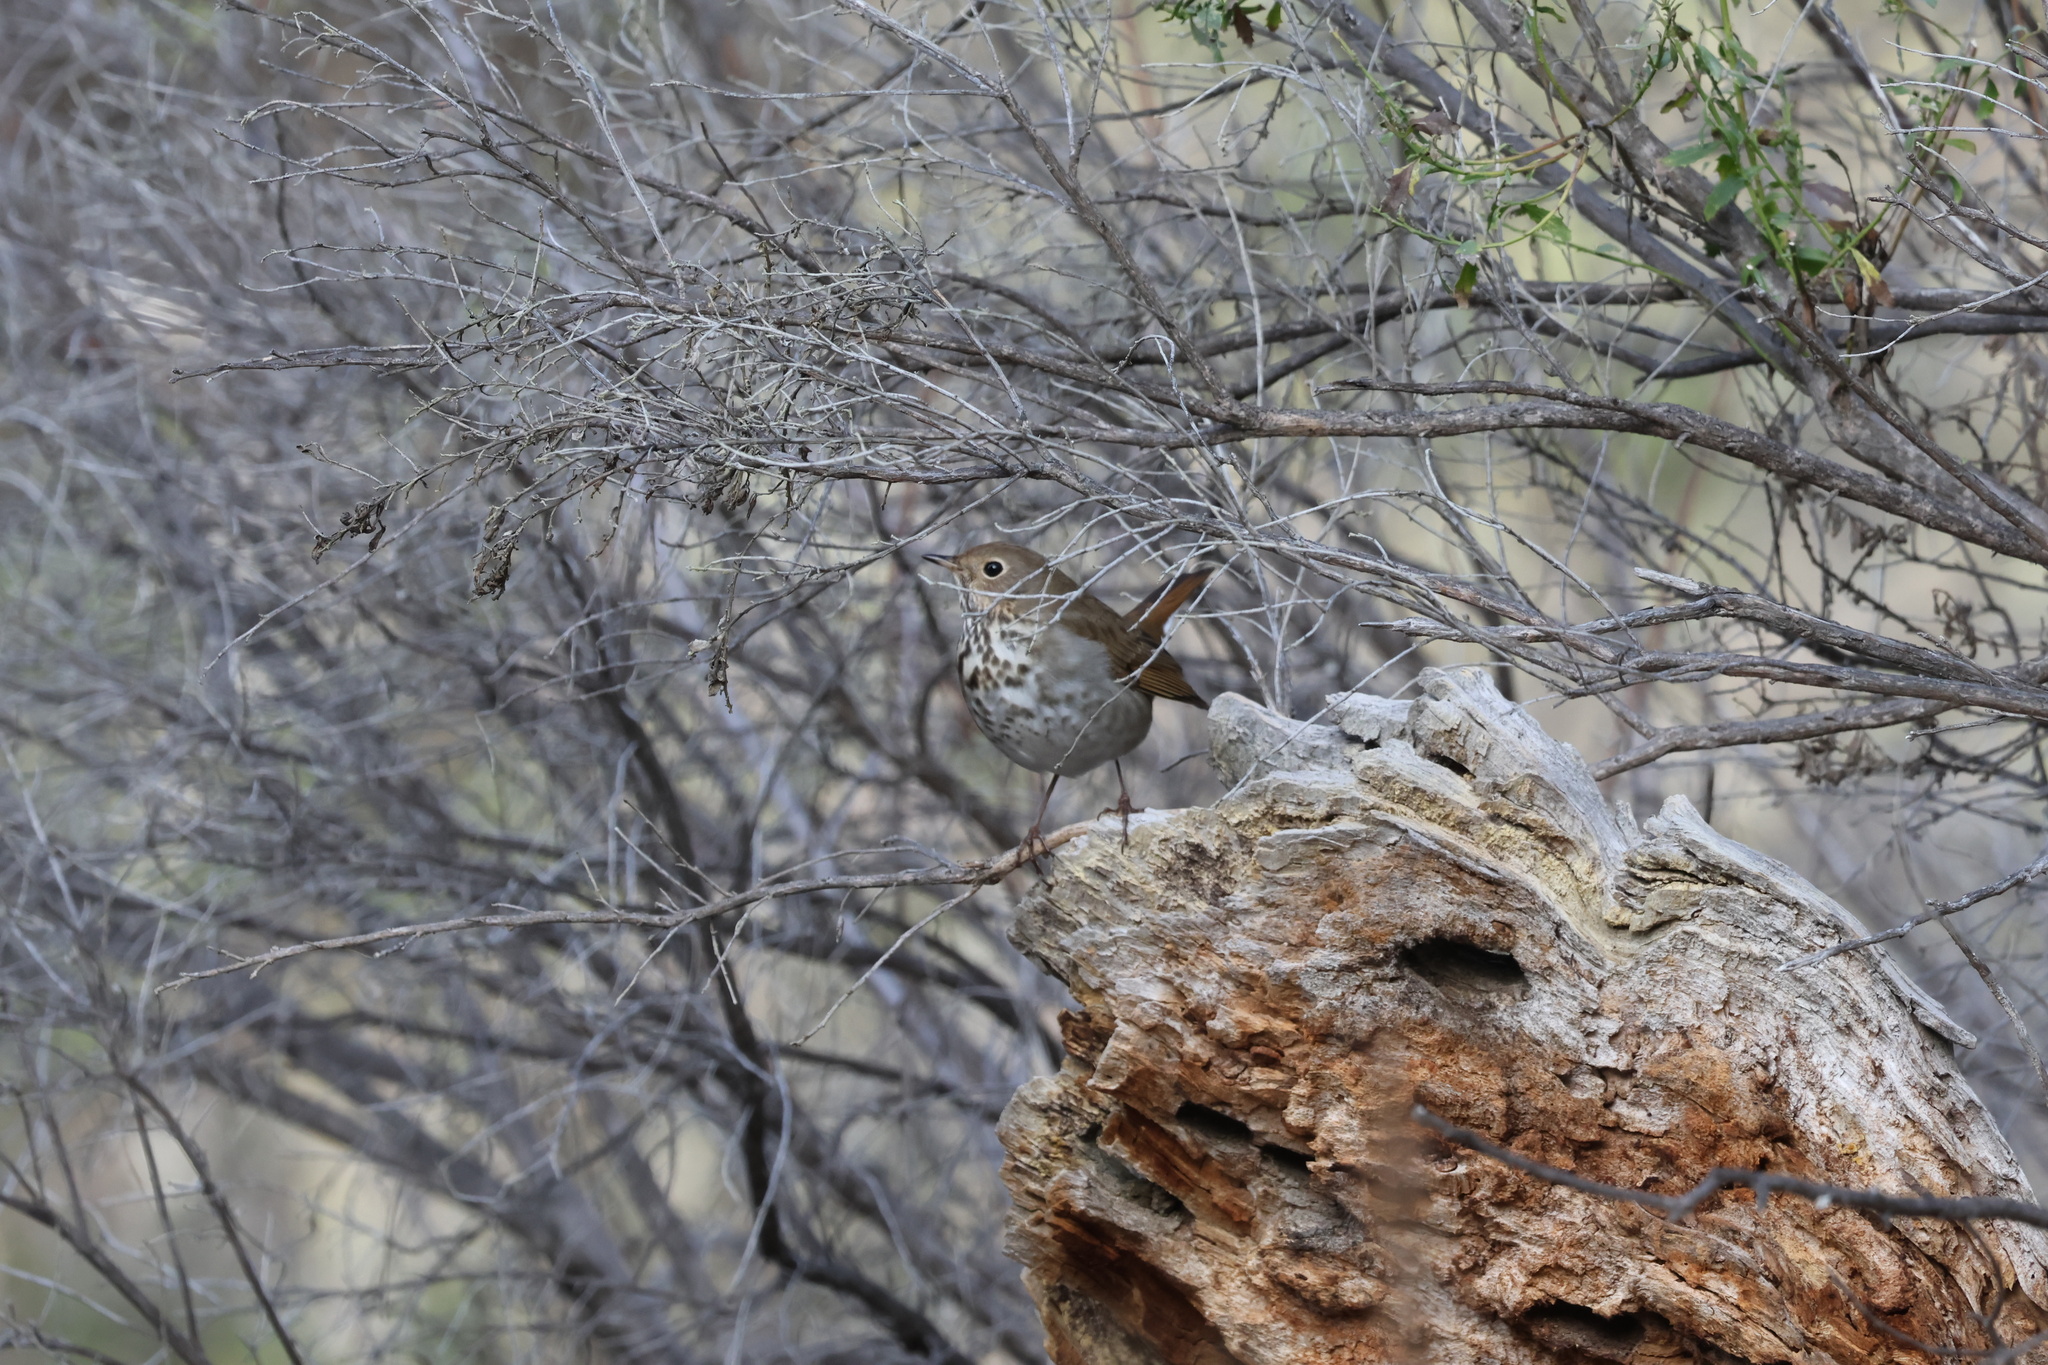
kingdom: Animalia
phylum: Chordata
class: Aves
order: Passeriformes
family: Turdidae
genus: Catharus
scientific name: Catharus guttatus
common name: Hermit thrush
